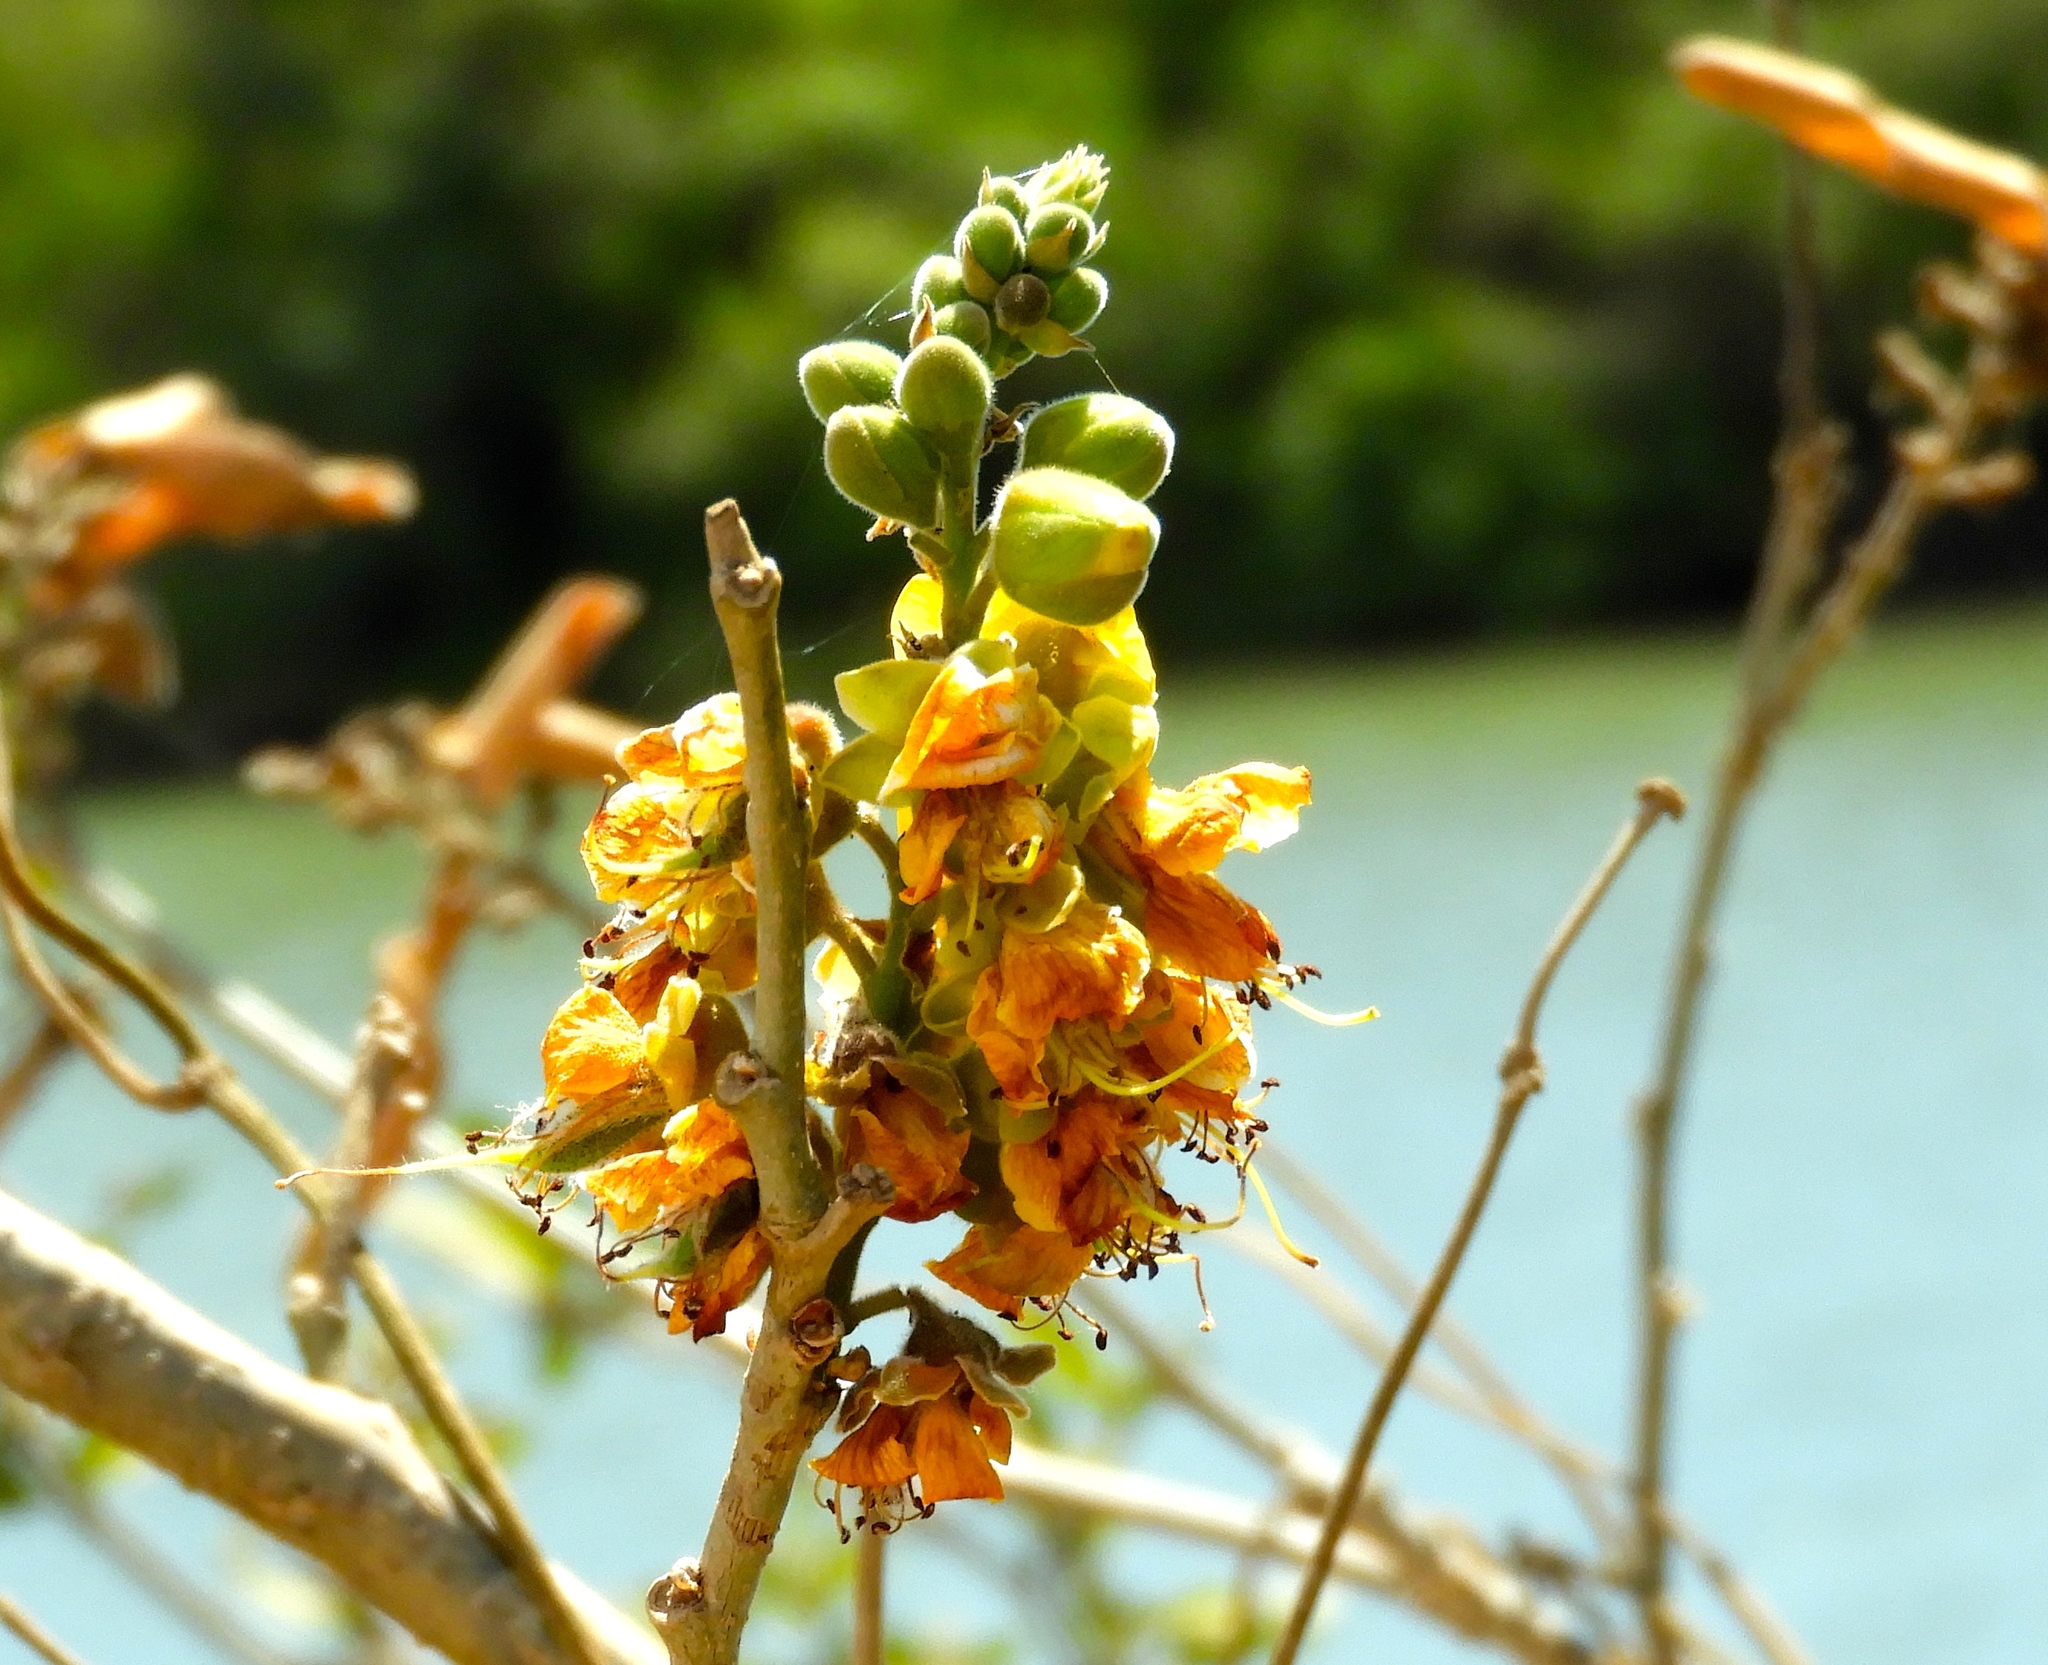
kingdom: Plantae
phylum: Tracheophyta
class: Magnoliopsida
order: Fabales
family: Fabaceae
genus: Coulteria
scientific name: Coulteria platyloba
